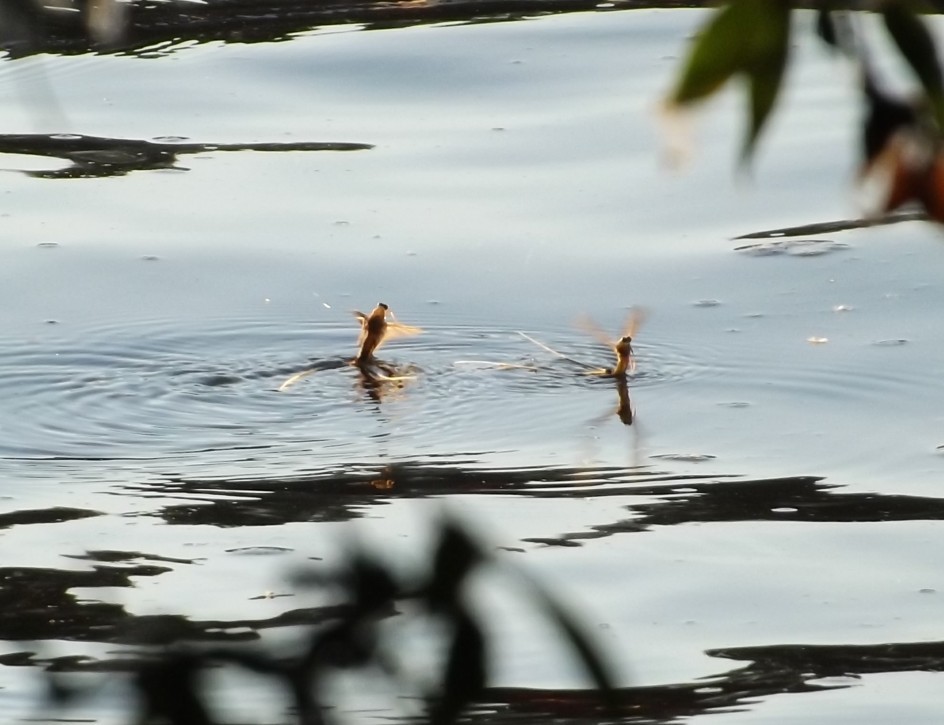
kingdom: Animalia
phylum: Arthropoda
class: Insecta
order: Ephemeroptera
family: Palingeniidae
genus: Palingenia
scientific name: Palingenia longicauda
